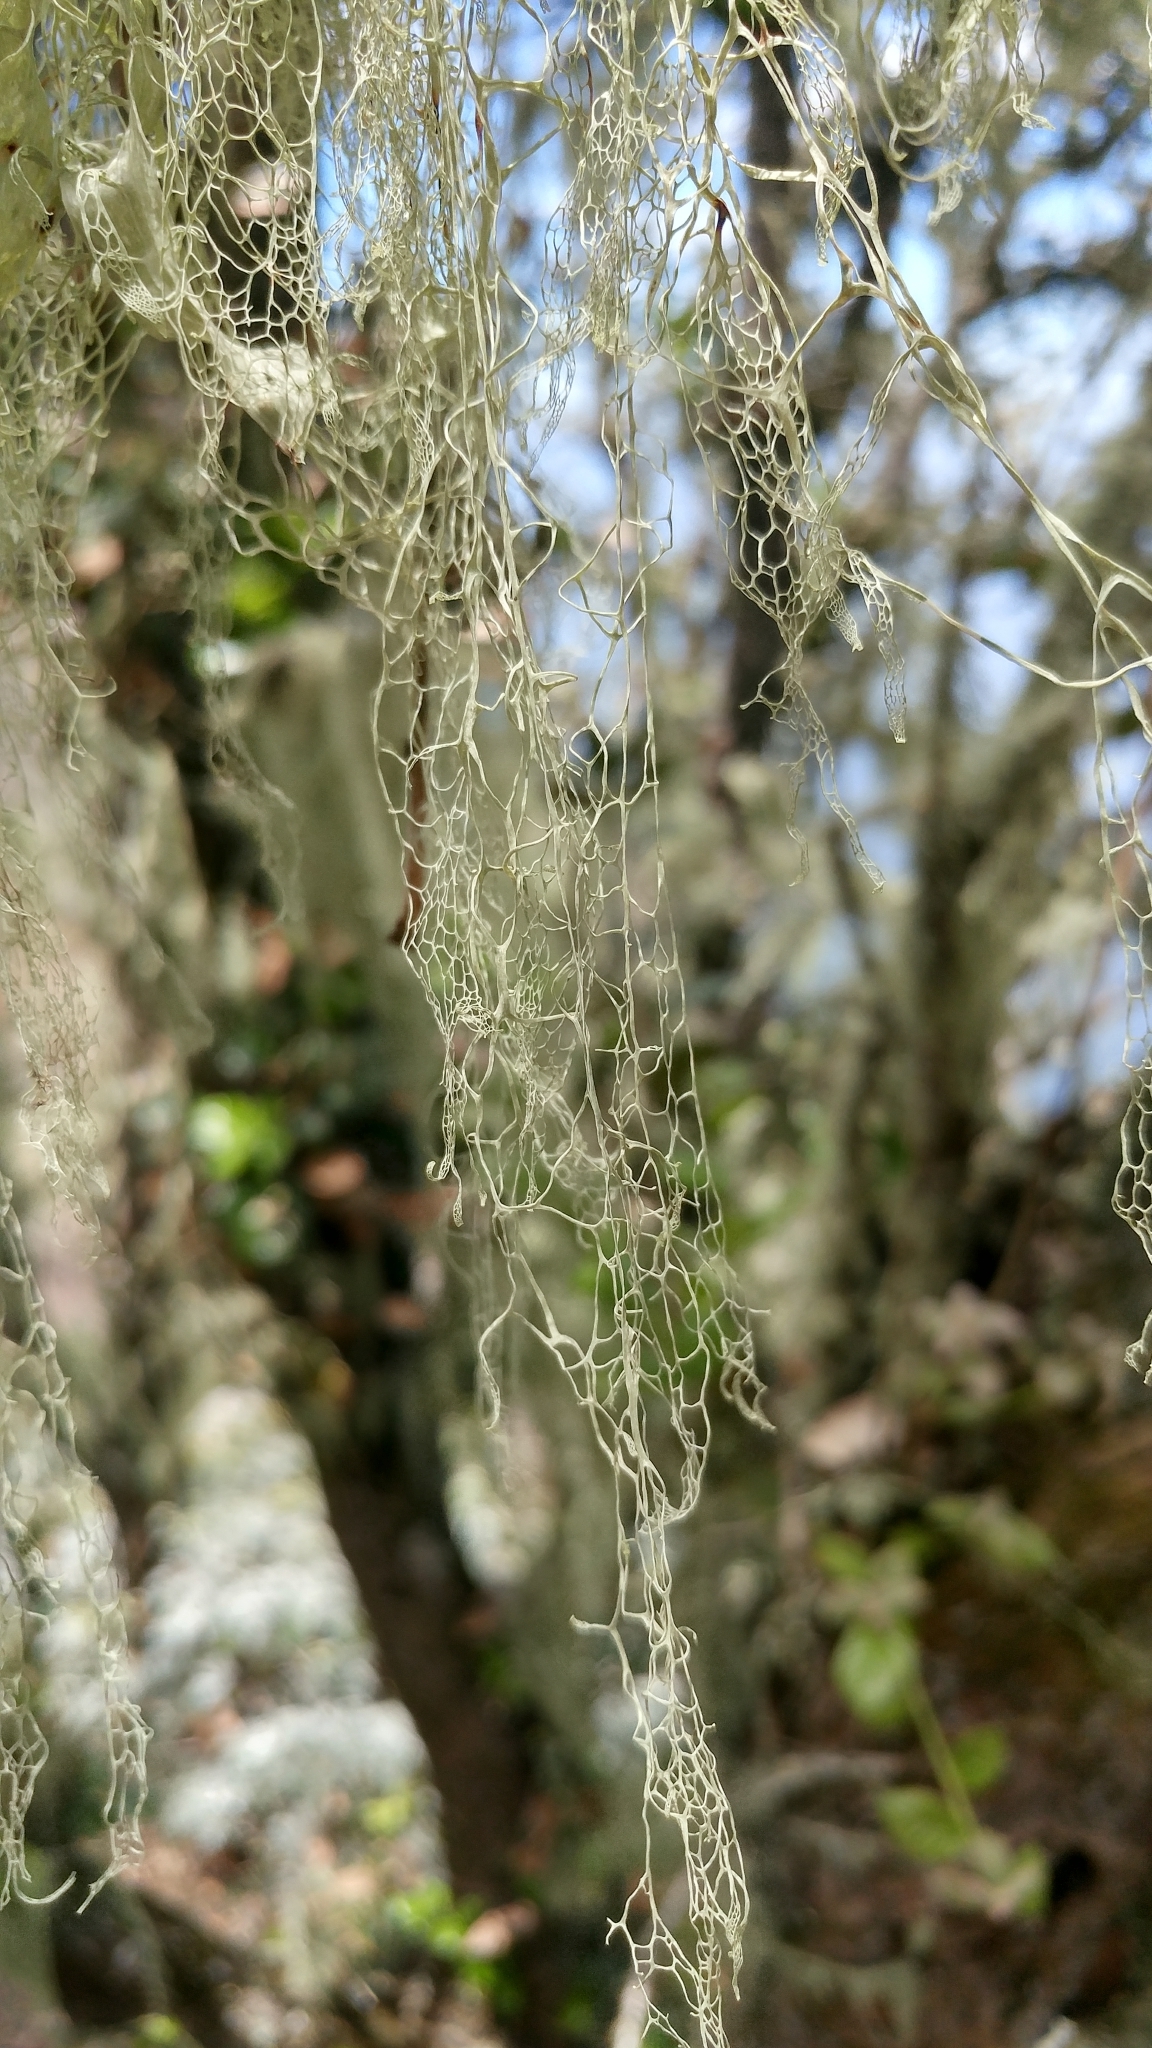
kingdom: Fungi
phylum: Ascomycota
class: Lecanoromycetes
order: Lecanorales
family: Ramalinaceae
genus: Ramalina
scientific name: Ramalina menziesii
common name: Lace lichen
